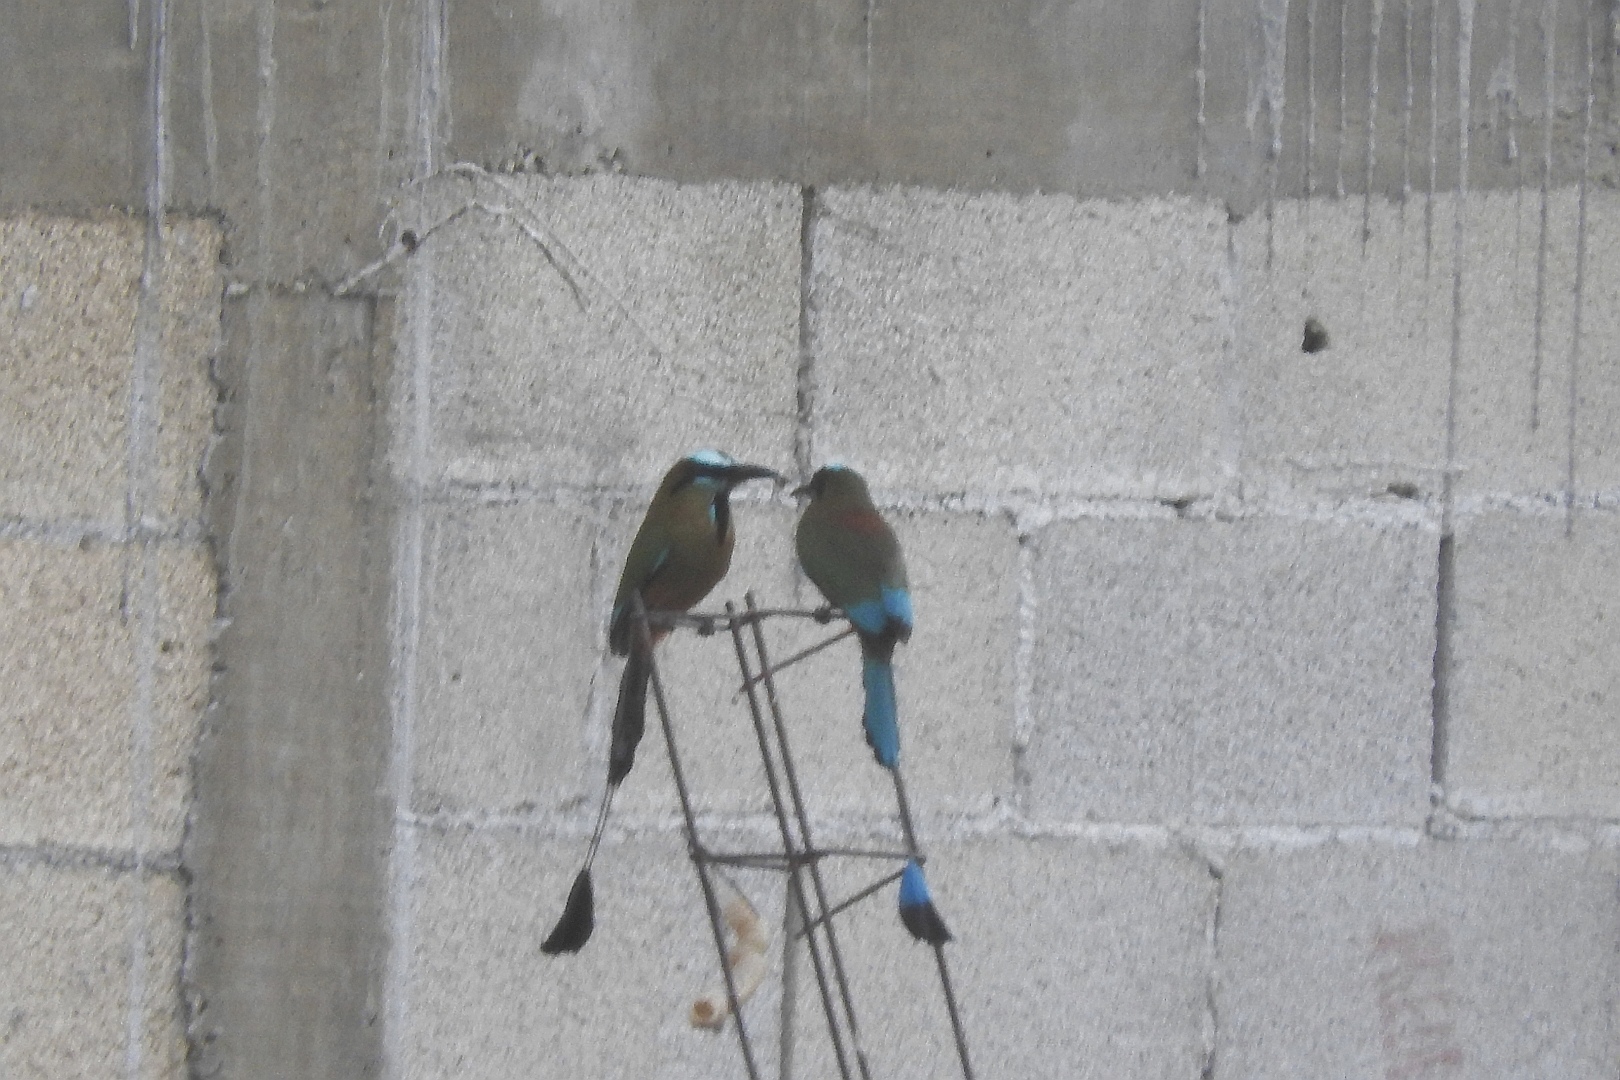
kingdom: Animalia
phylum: Chordata
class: Aves
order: Coraciiformes
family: Momotidae
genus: Eumomota
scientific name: Eumomota superciliosa
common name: Turquoise-browed motmot
